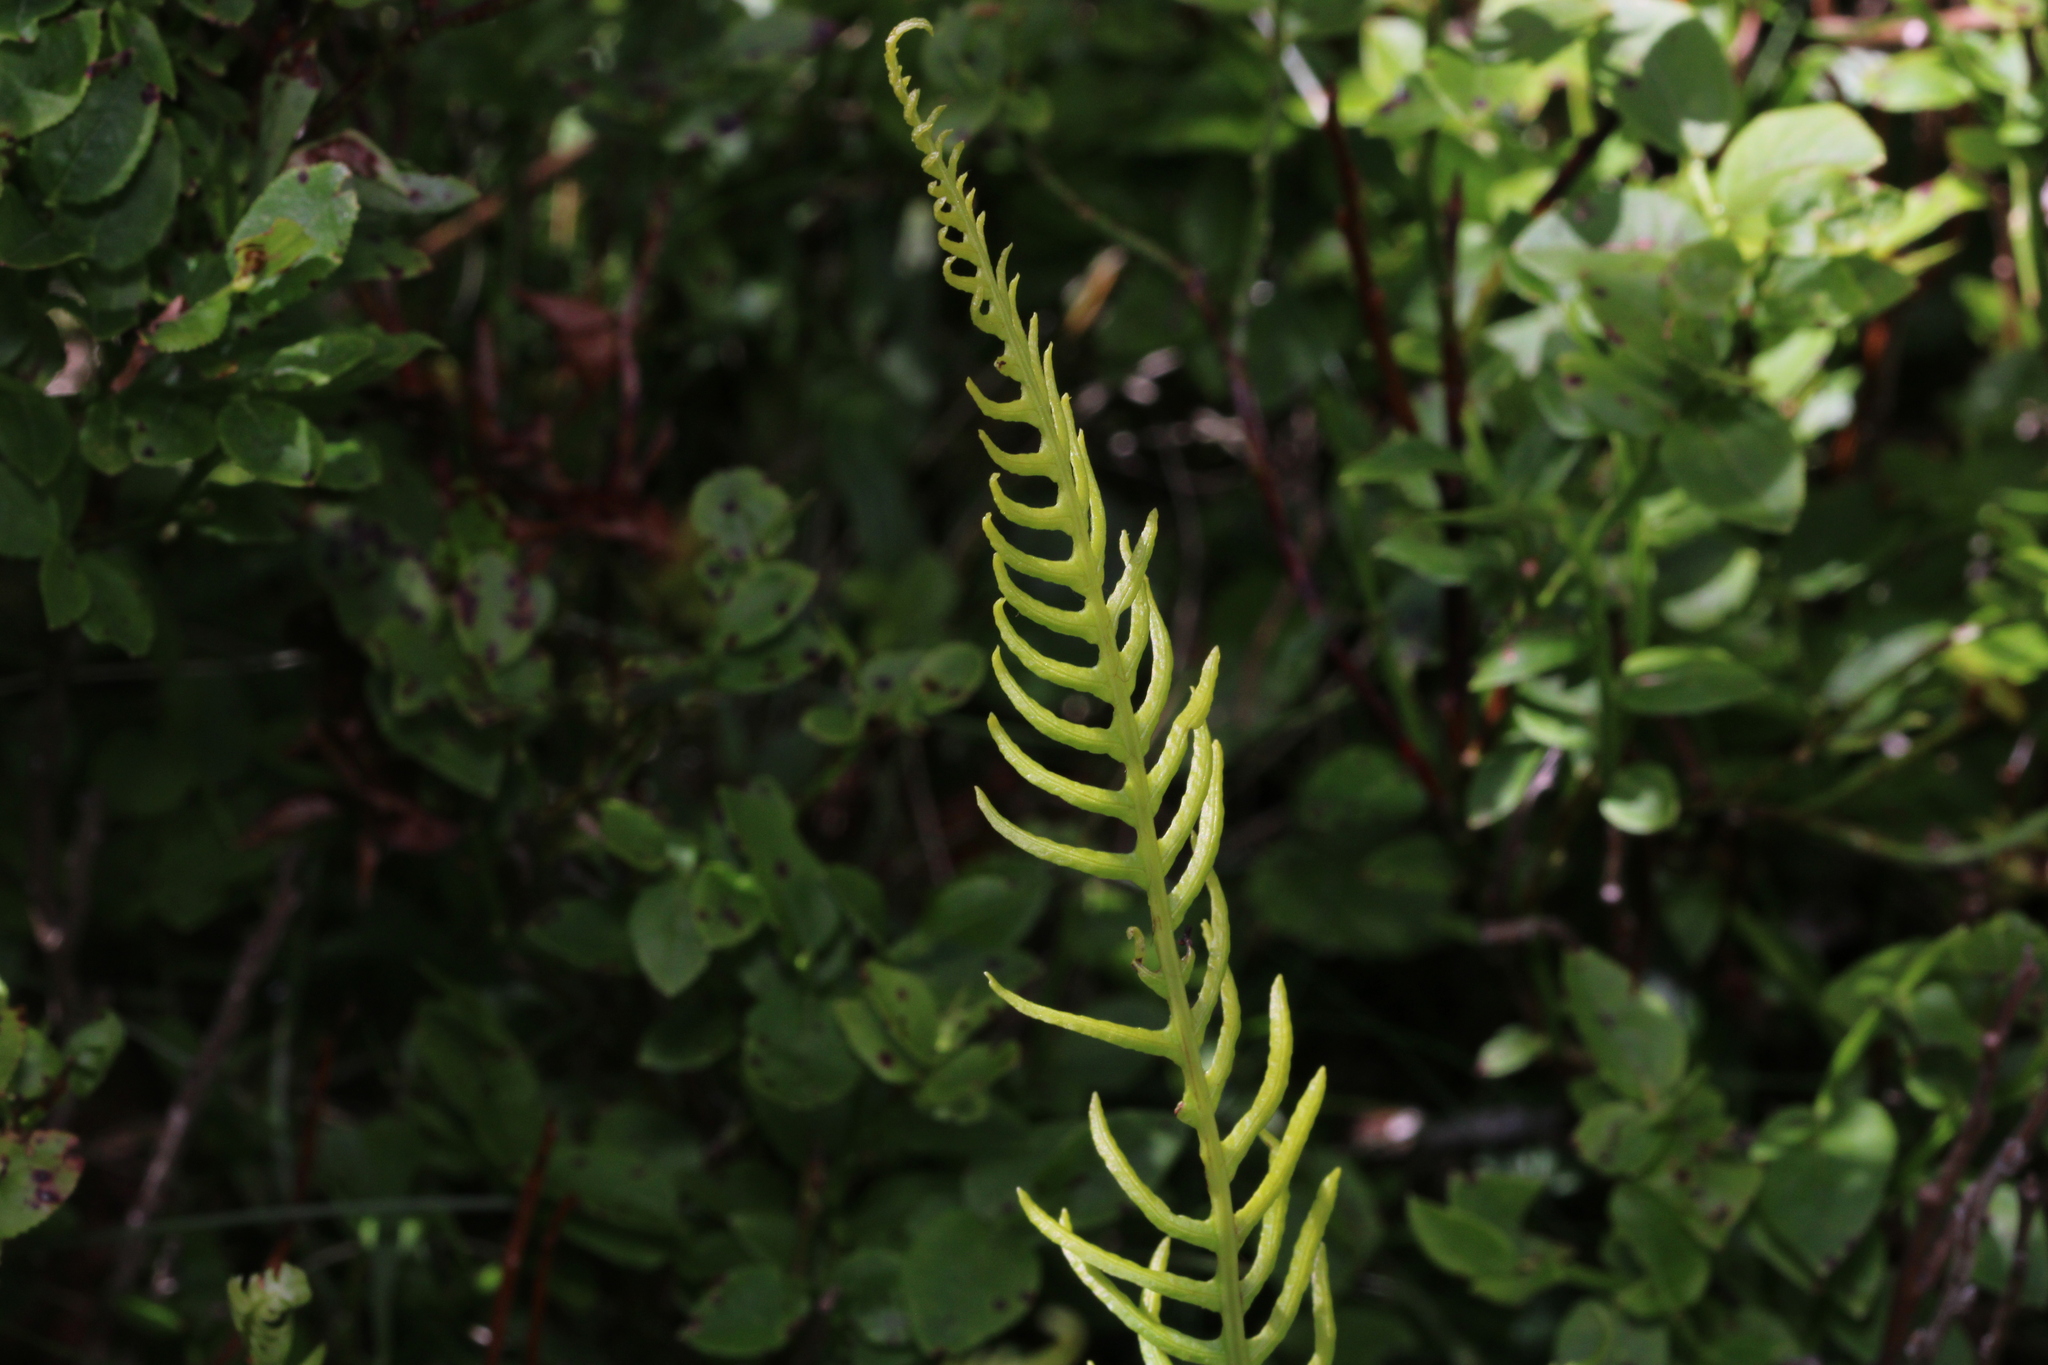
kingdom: Plantae
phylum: Tracheophyta
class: Polypodiopsida
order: Polypodiales
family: Blechnaceae
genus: Struthiopteris
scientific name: Struthiopteris spicant
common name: Deer fern
